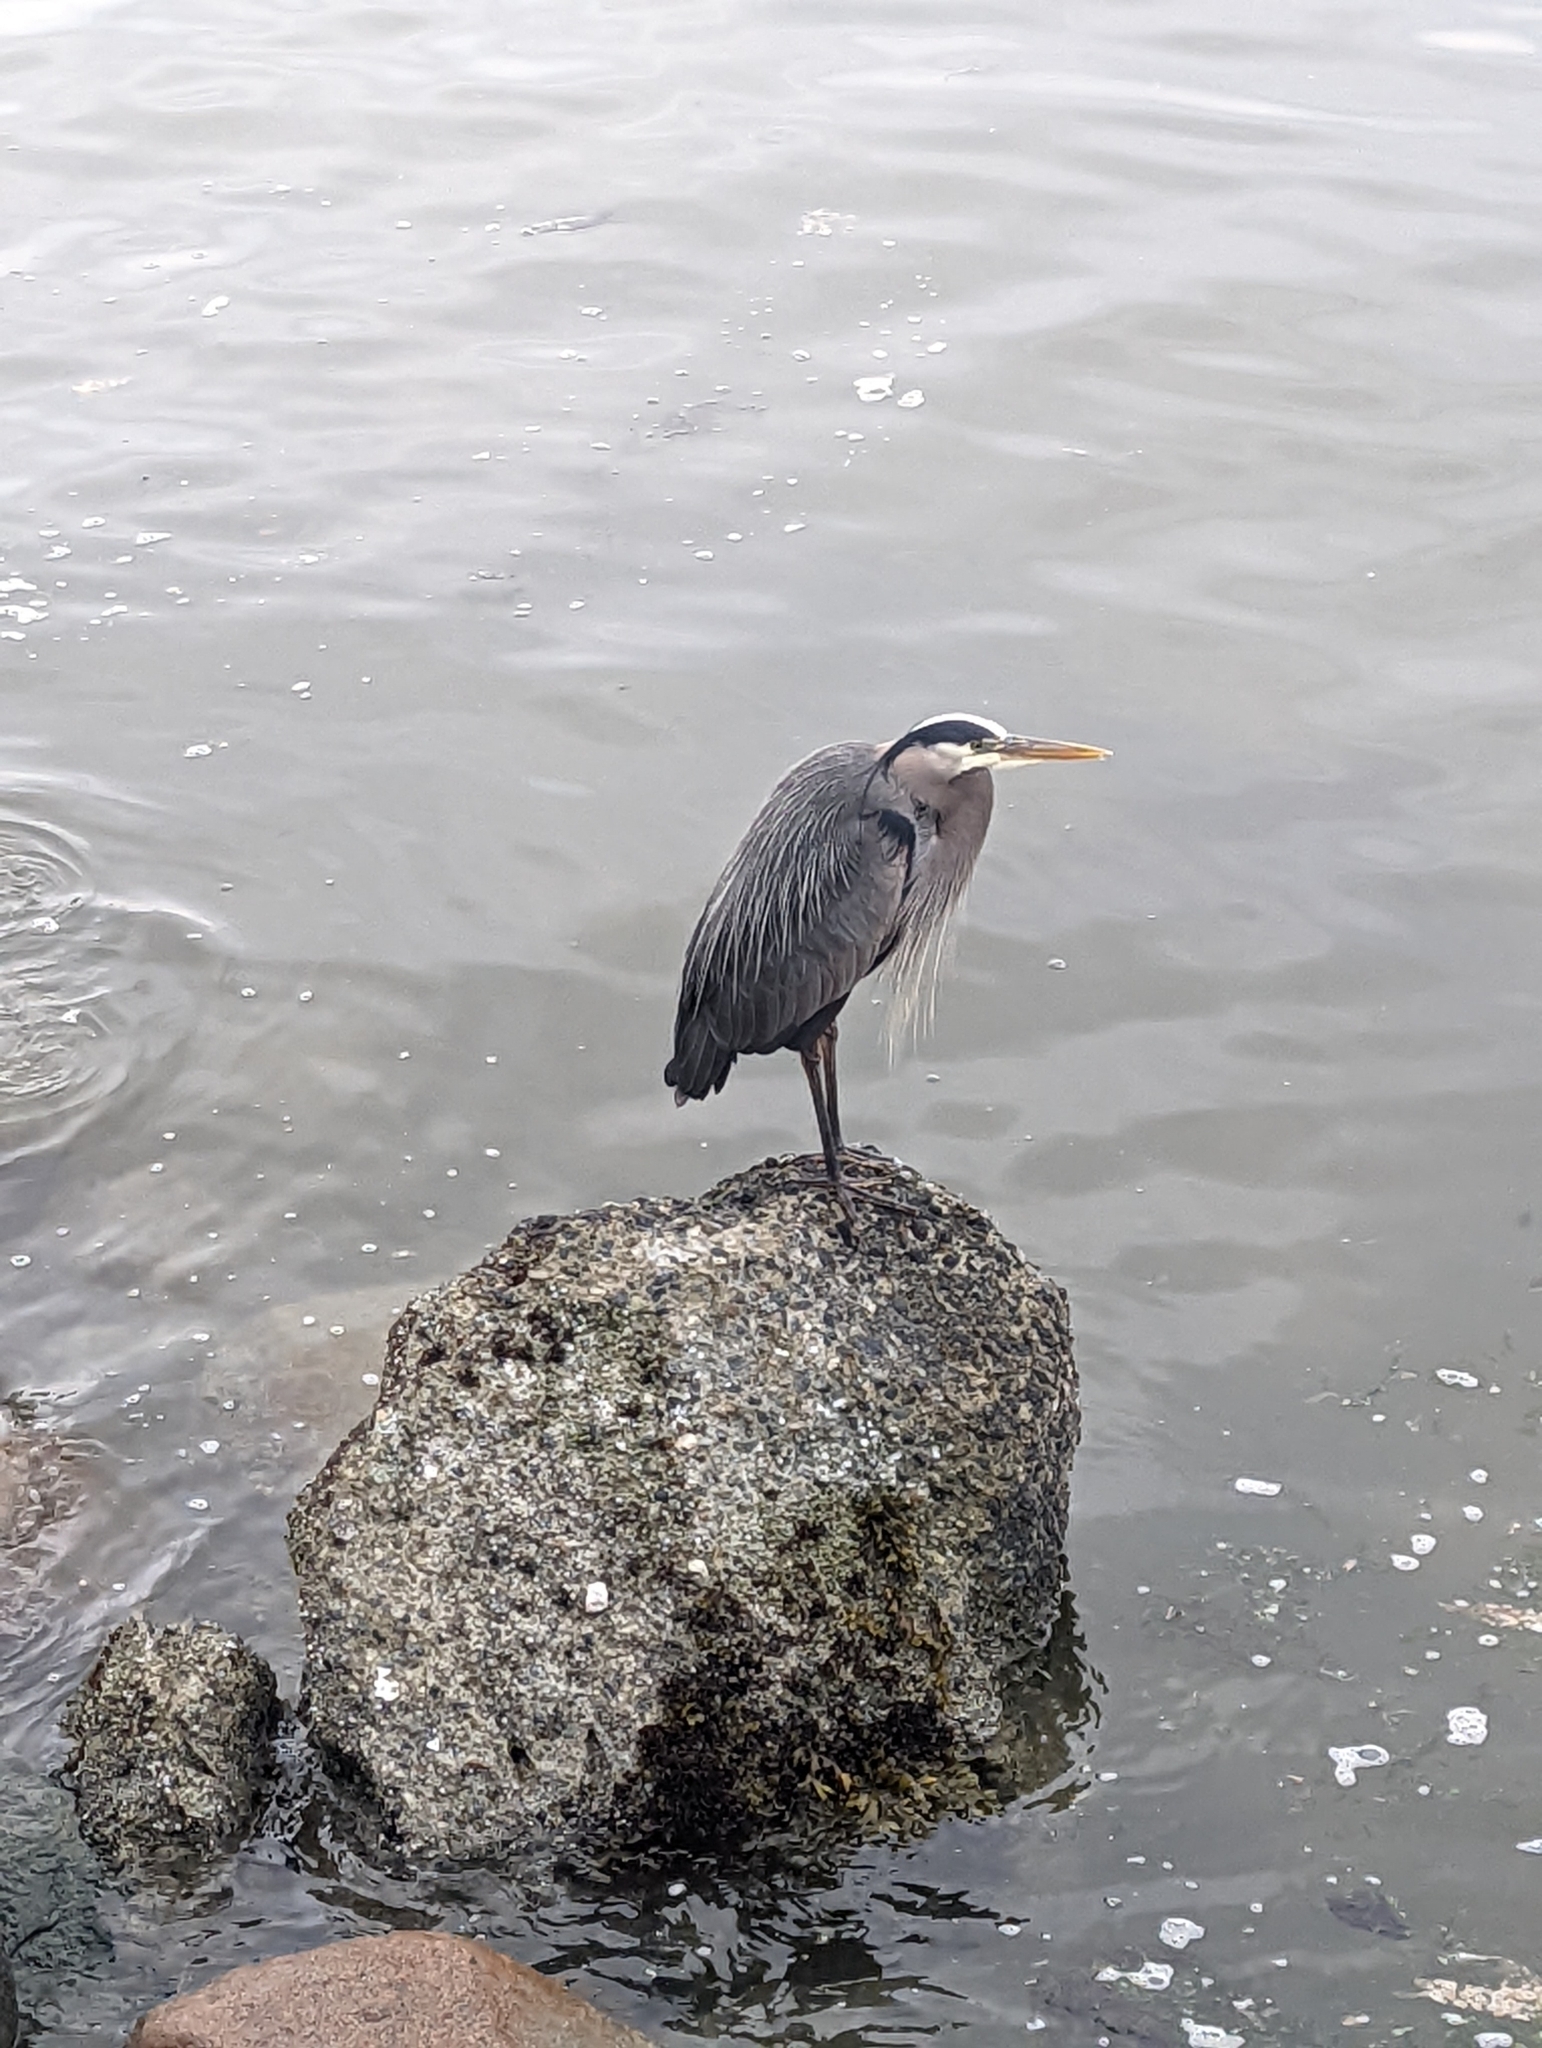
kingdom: Animalia
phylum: Chordata
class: Aves
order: Pelecaniformes
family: Ardeidae
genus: Ardea
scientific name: Ardea herodias
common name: Great blue heron
